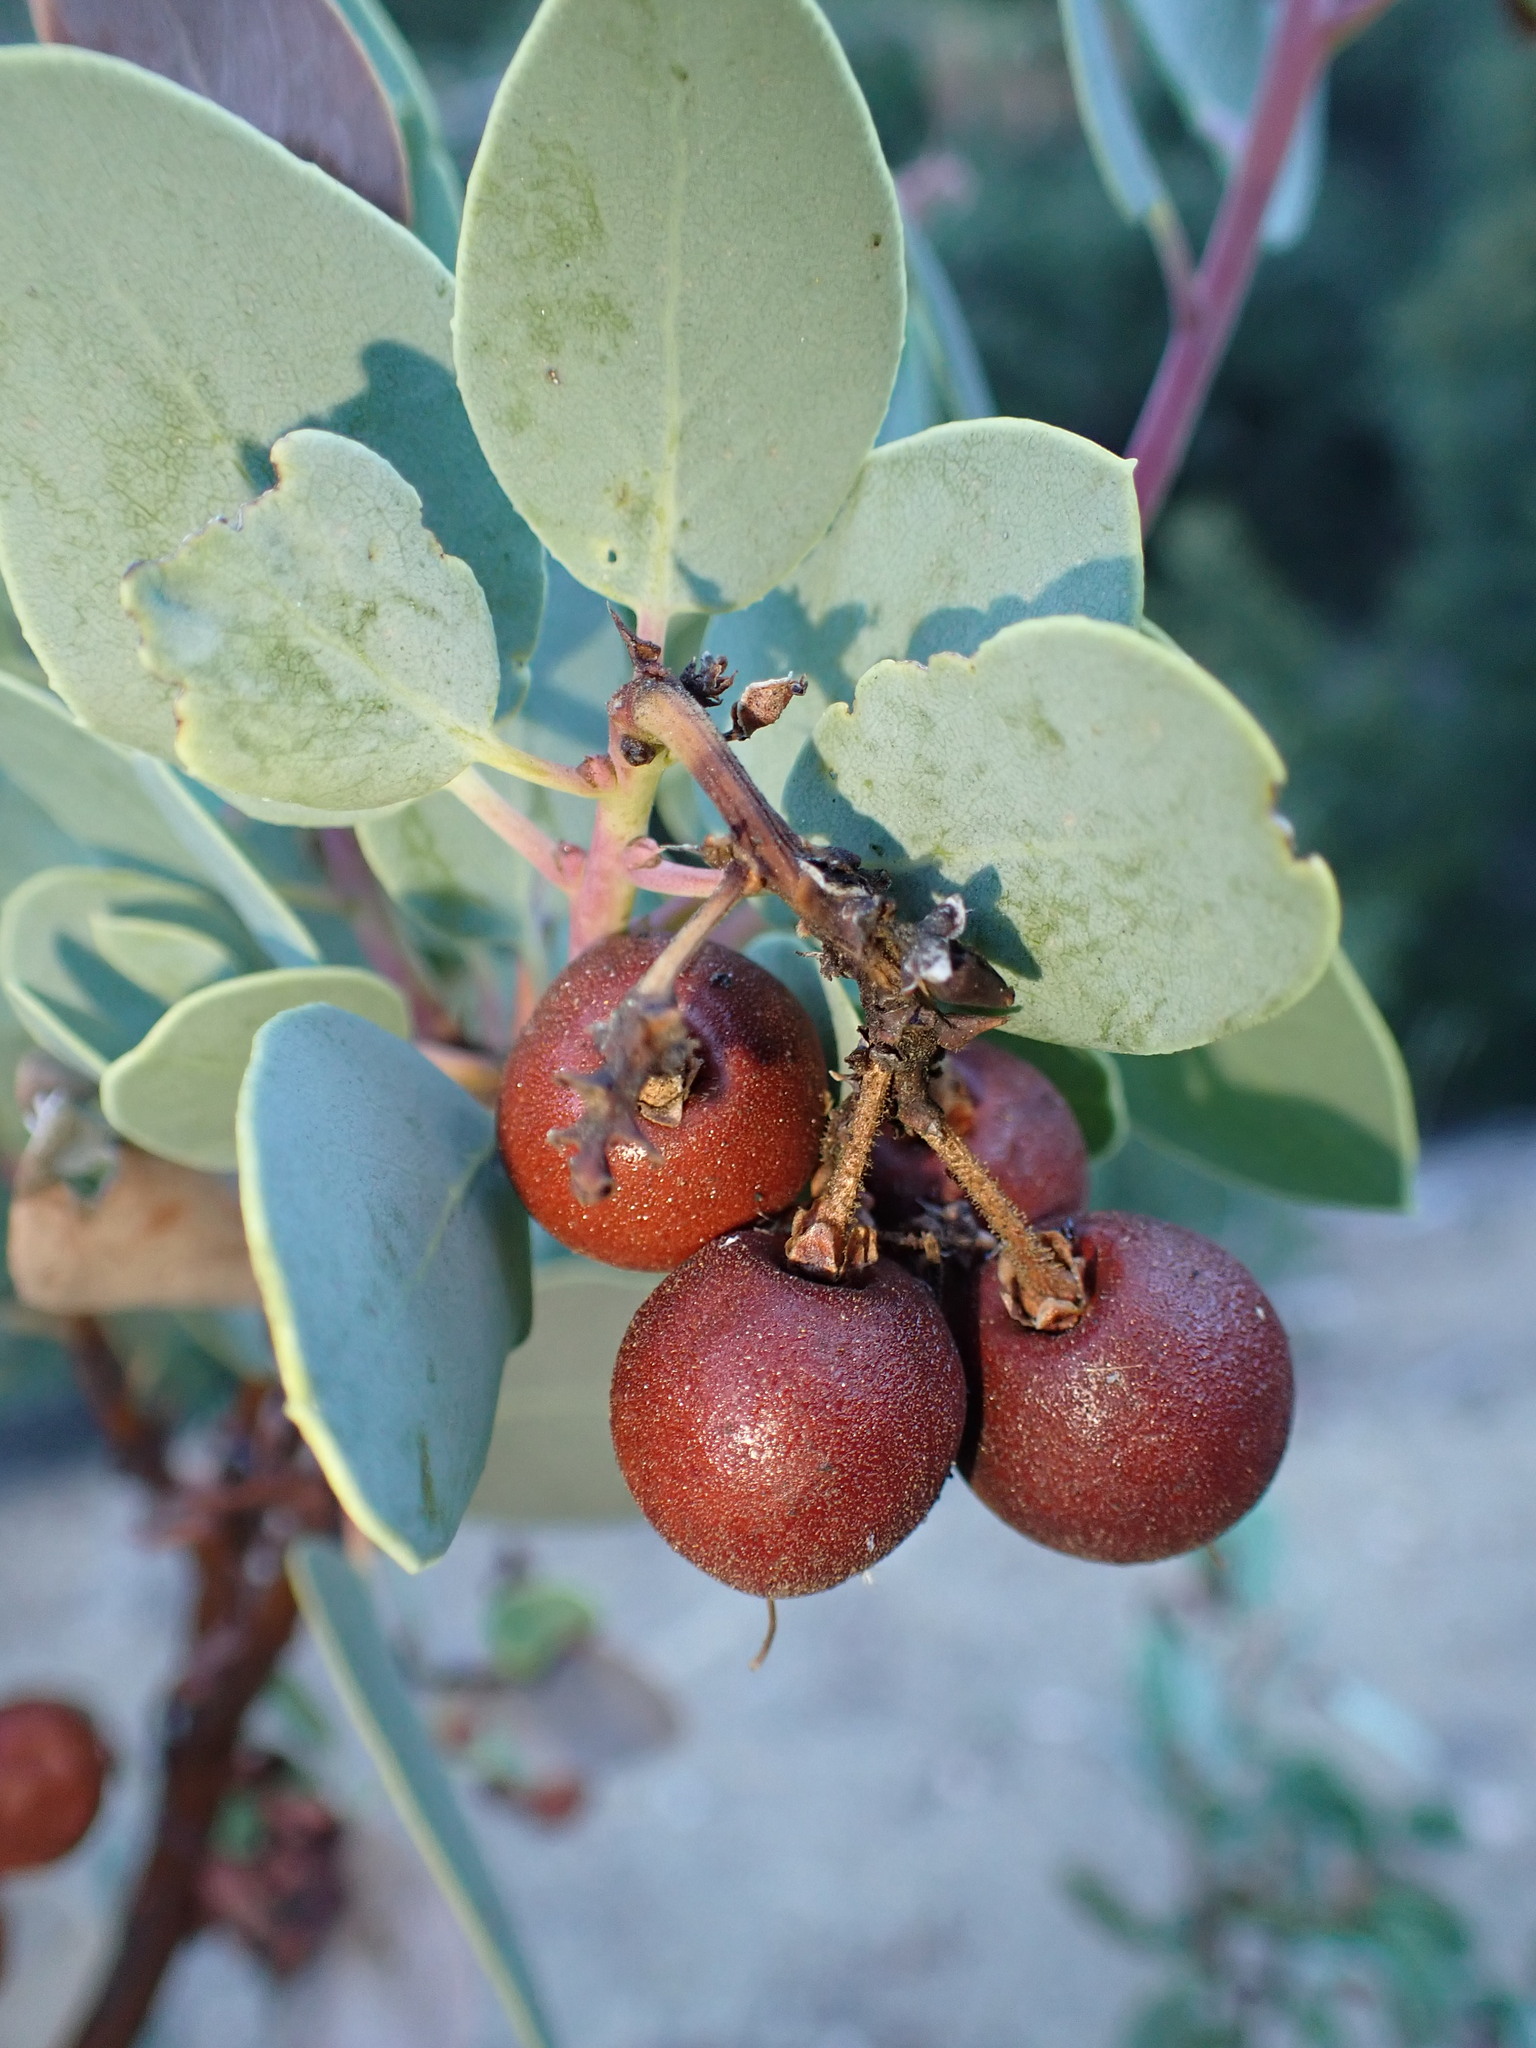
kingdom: Plantae
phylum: Tracheophyta
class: Magnoliopsida
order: Ericales
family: Ericaceae
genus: Arctostaphylos
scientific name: Arctostaphylos glauca
